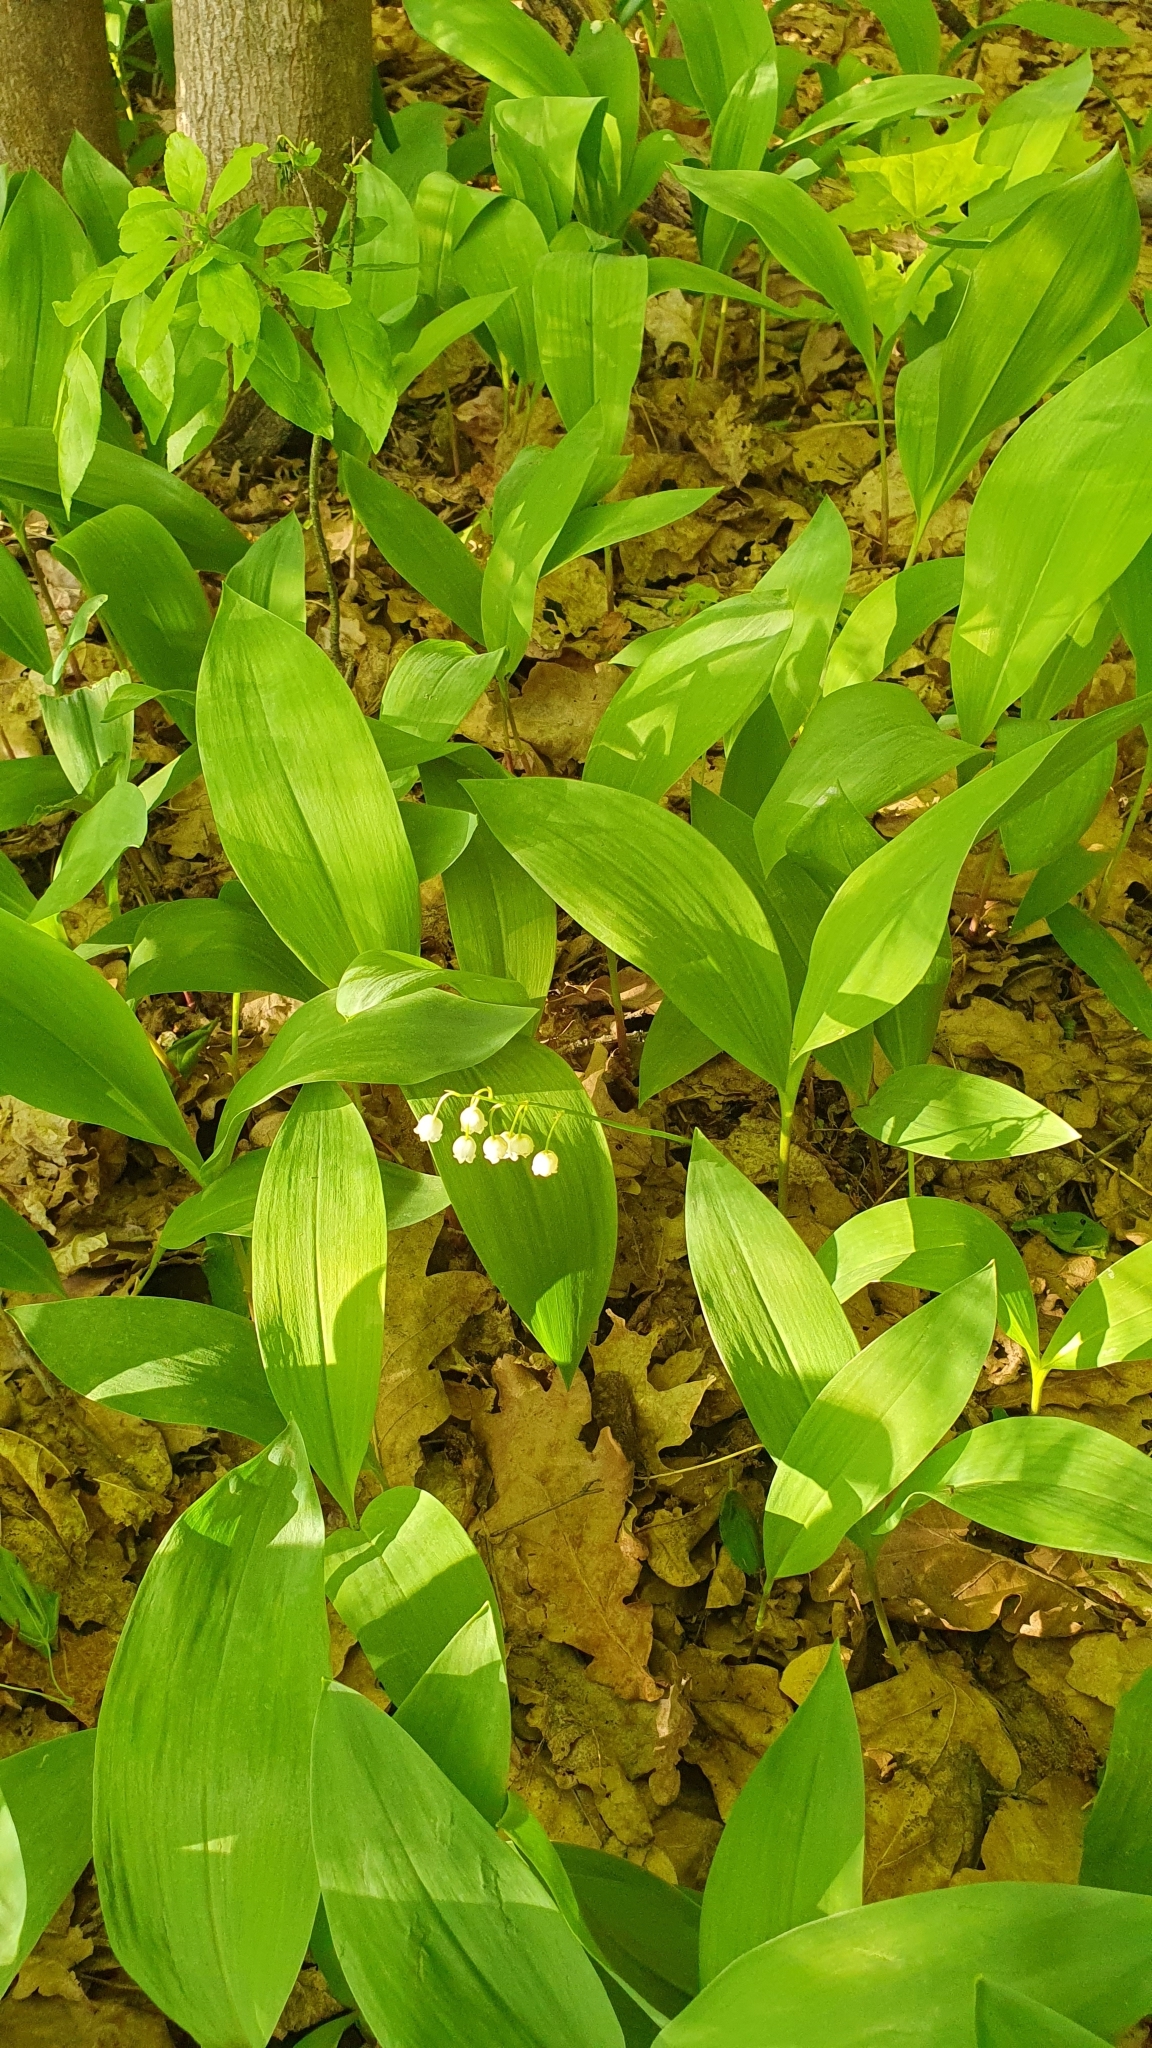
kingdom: Plantae
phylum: Tracheophyta
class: Liliopsida
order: Asparagales
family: Asparagaceae
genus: Convallaria
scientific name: Convallaria majalis
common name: Lily-of-the-valley
